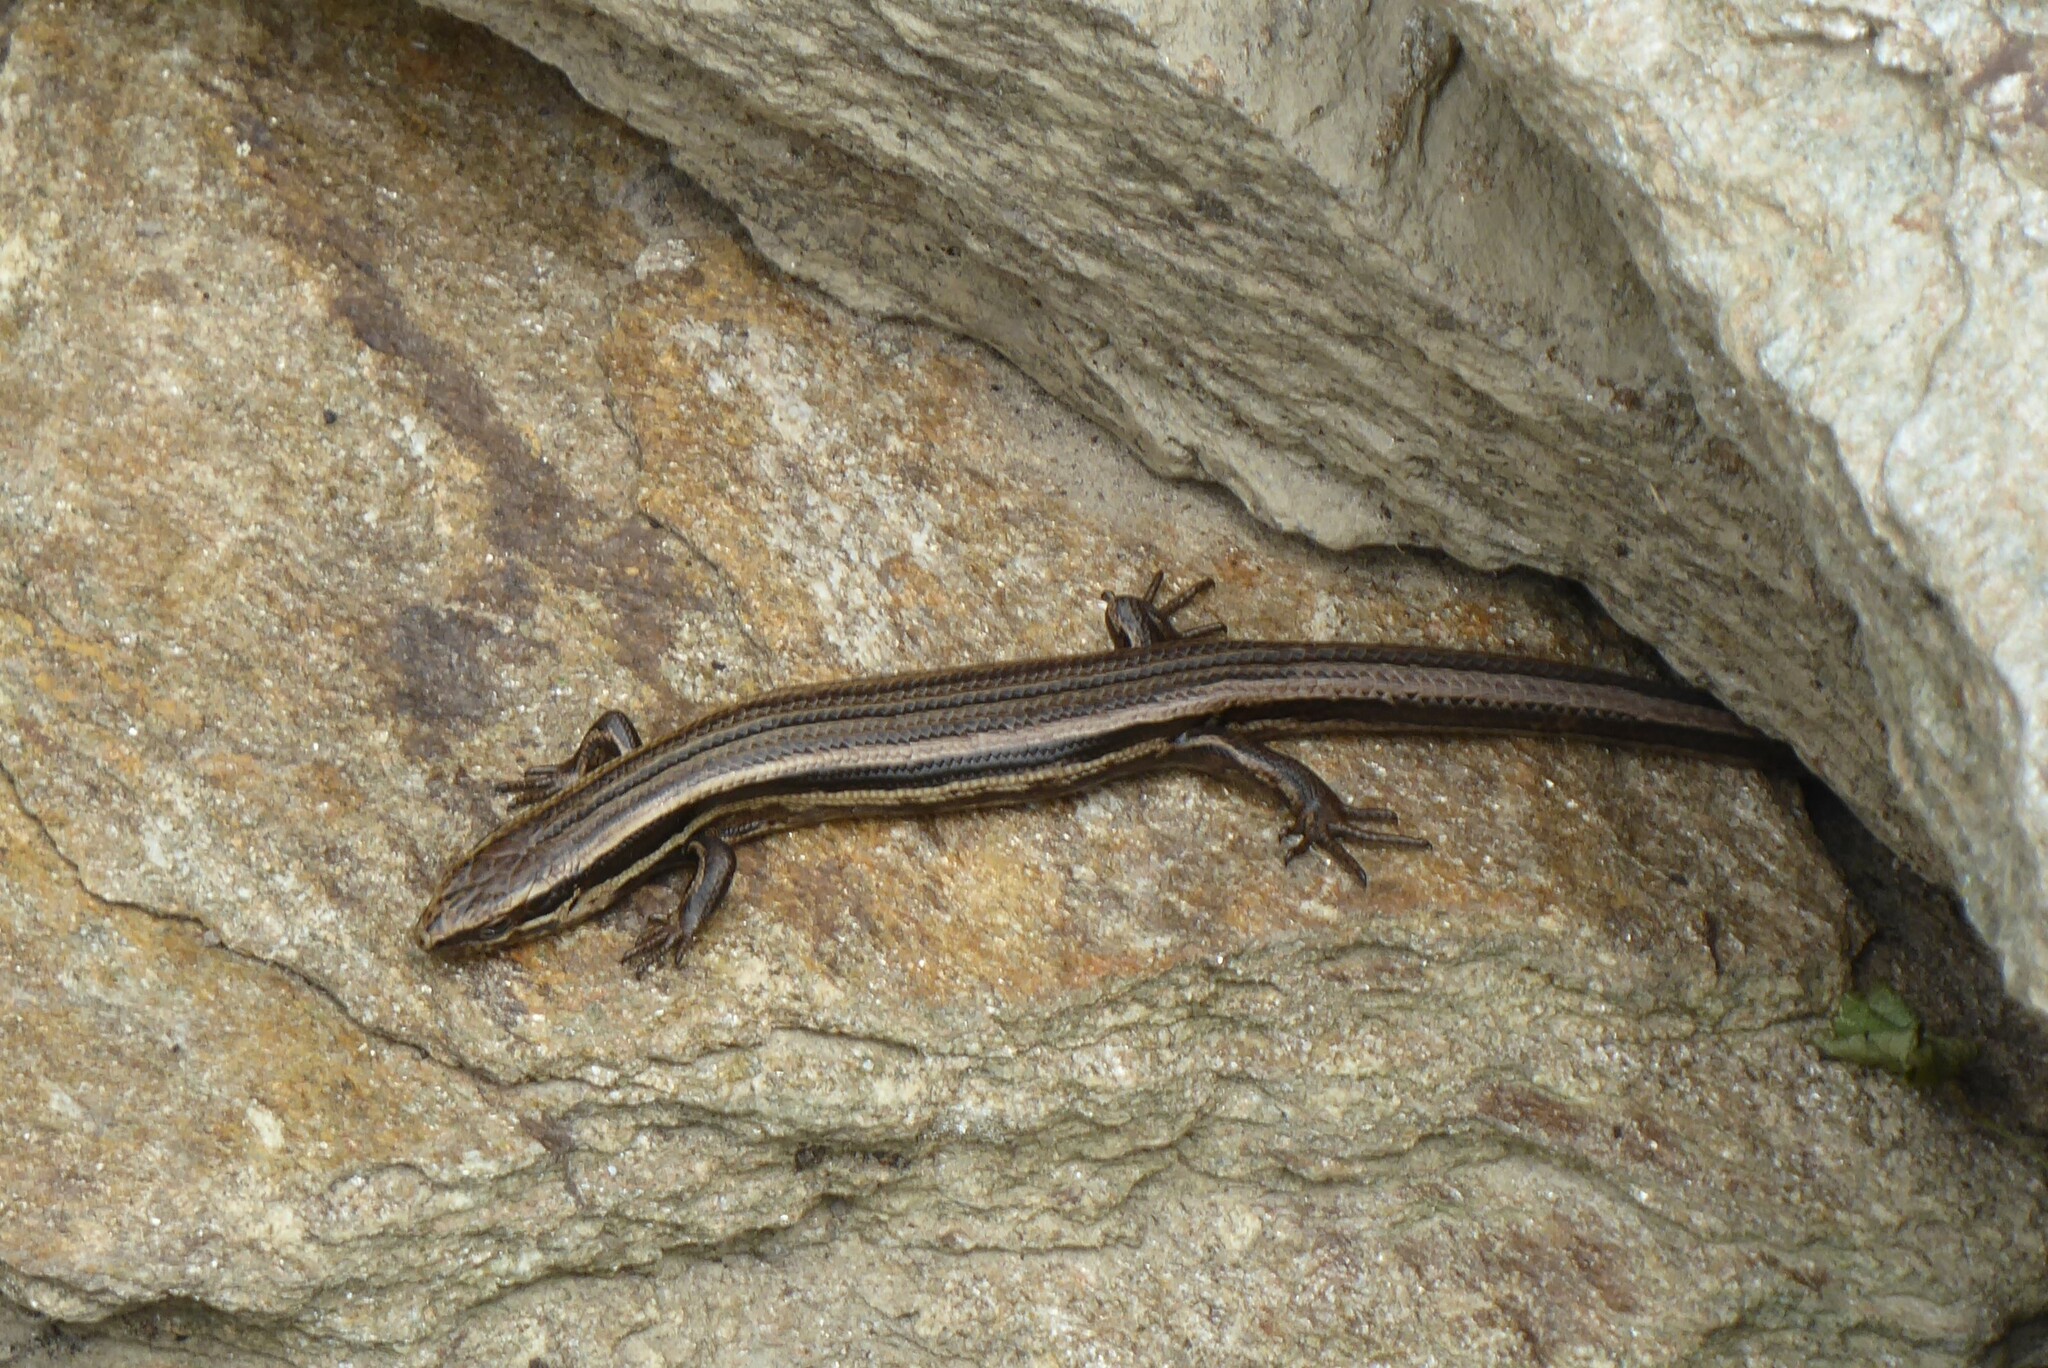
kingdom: Animalia
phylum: Chordata
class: Squamata
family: Scincidae
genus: Oligosoma
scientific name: Oligosoma polychroma
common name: Common new zealand skink
